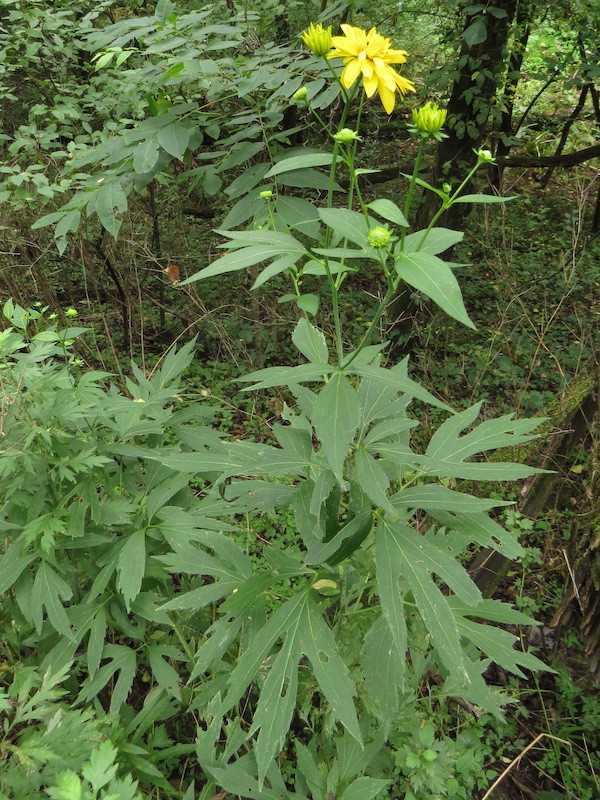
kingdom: Plantae
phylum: Tracheophyta
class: Magnoliopsida
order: Asterales
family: Asteraceae
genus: Rudbeckia
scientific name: Rudbeckia laciniata
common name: Coneflower
